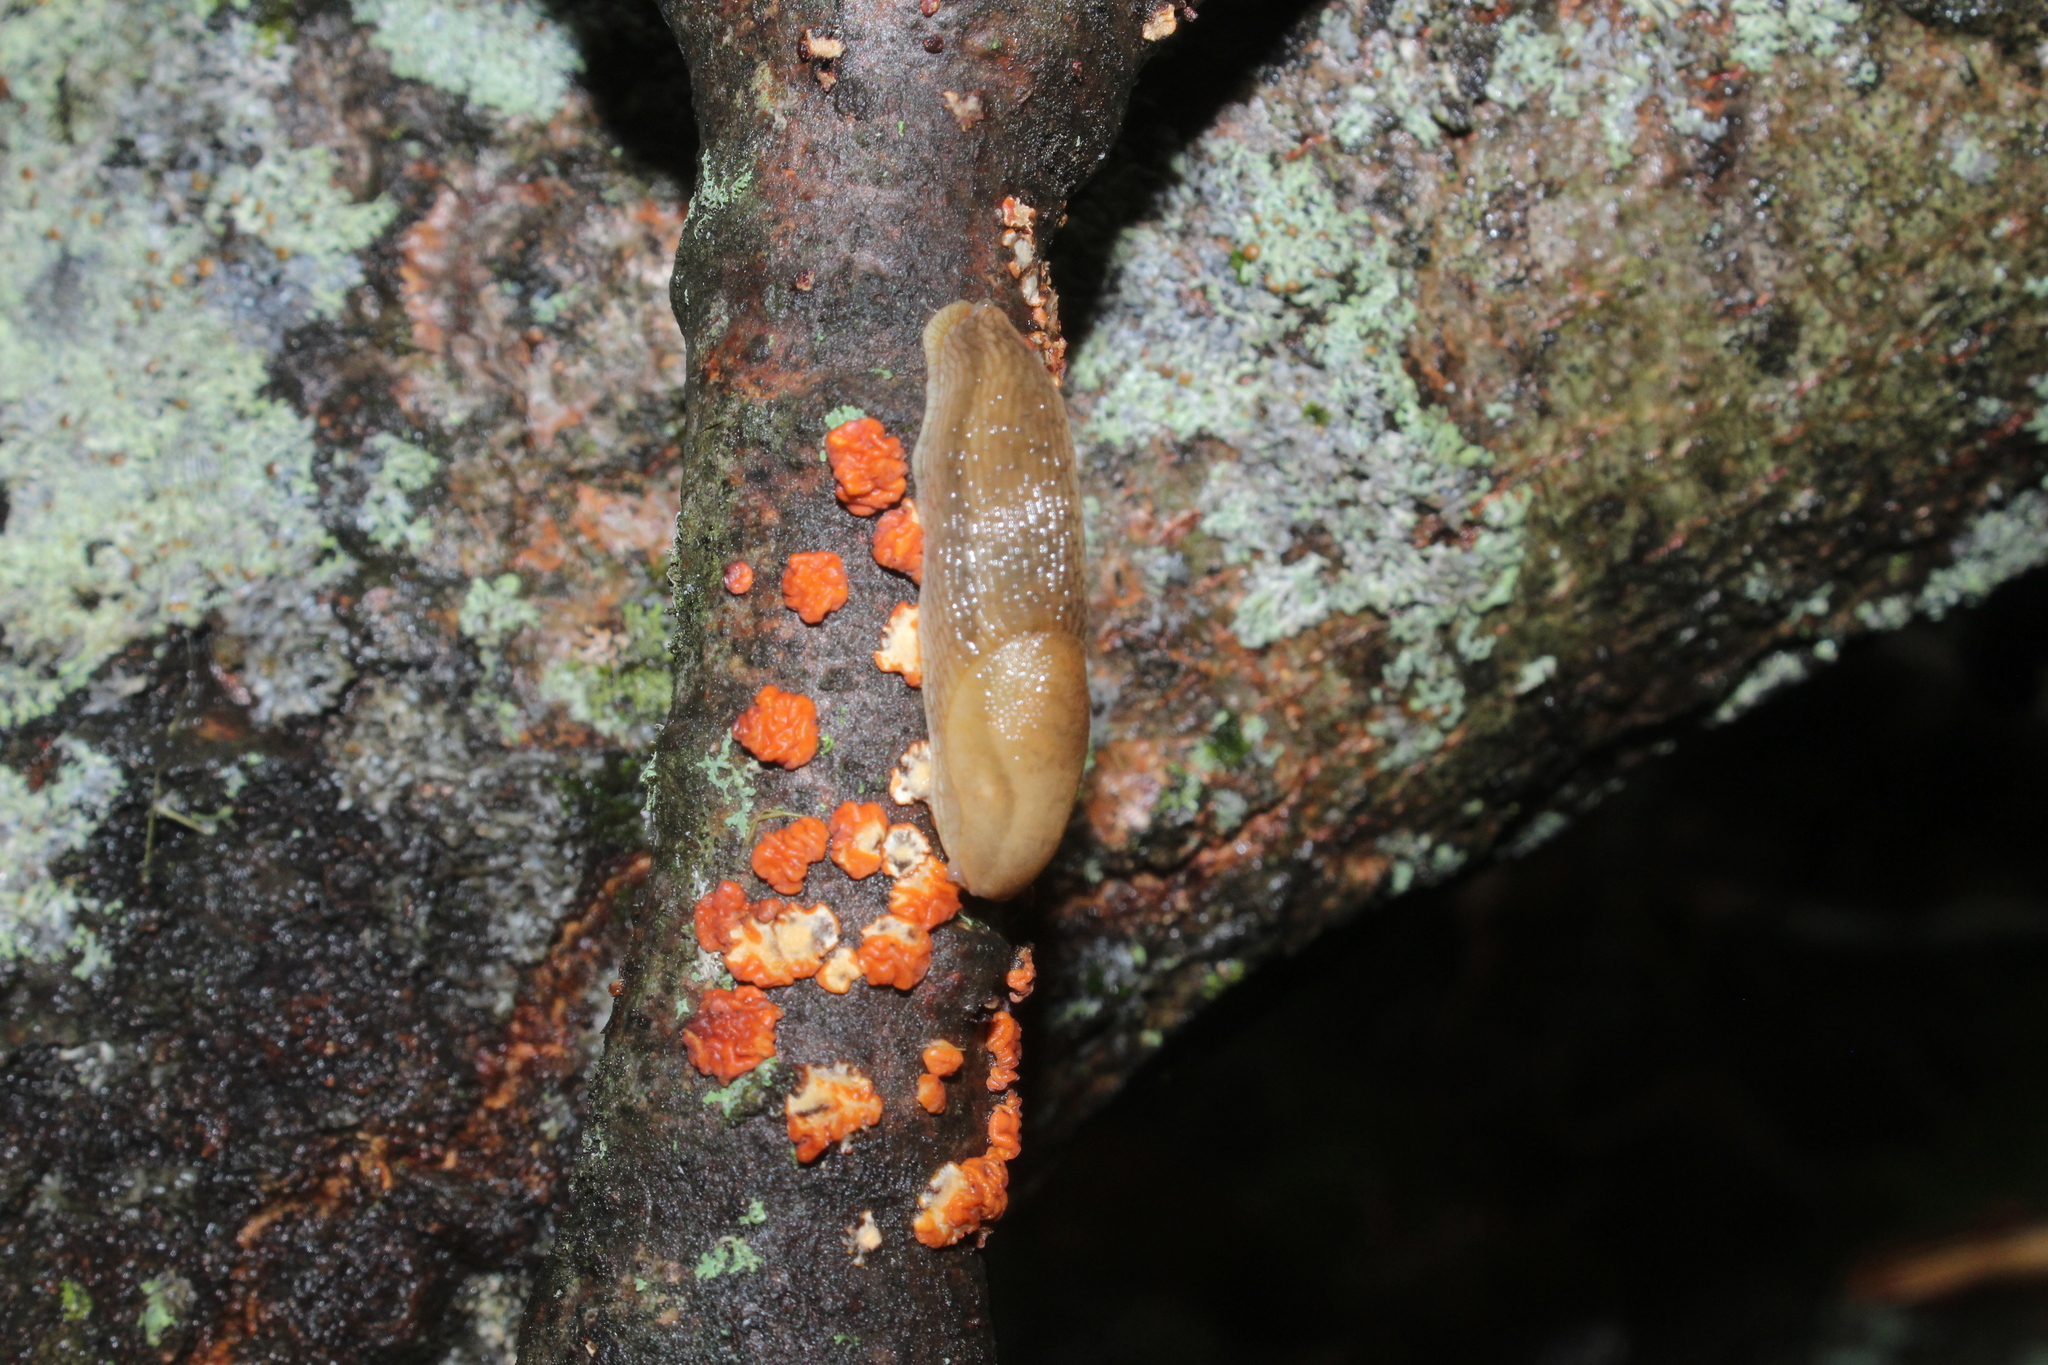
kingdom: Fungi
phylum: Basidiomycota
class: Agaricomycetes
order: Russulales
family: Peniophoraceae
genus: Peniophora
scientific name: Peniophora rufa
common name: Red tree brain fungus
